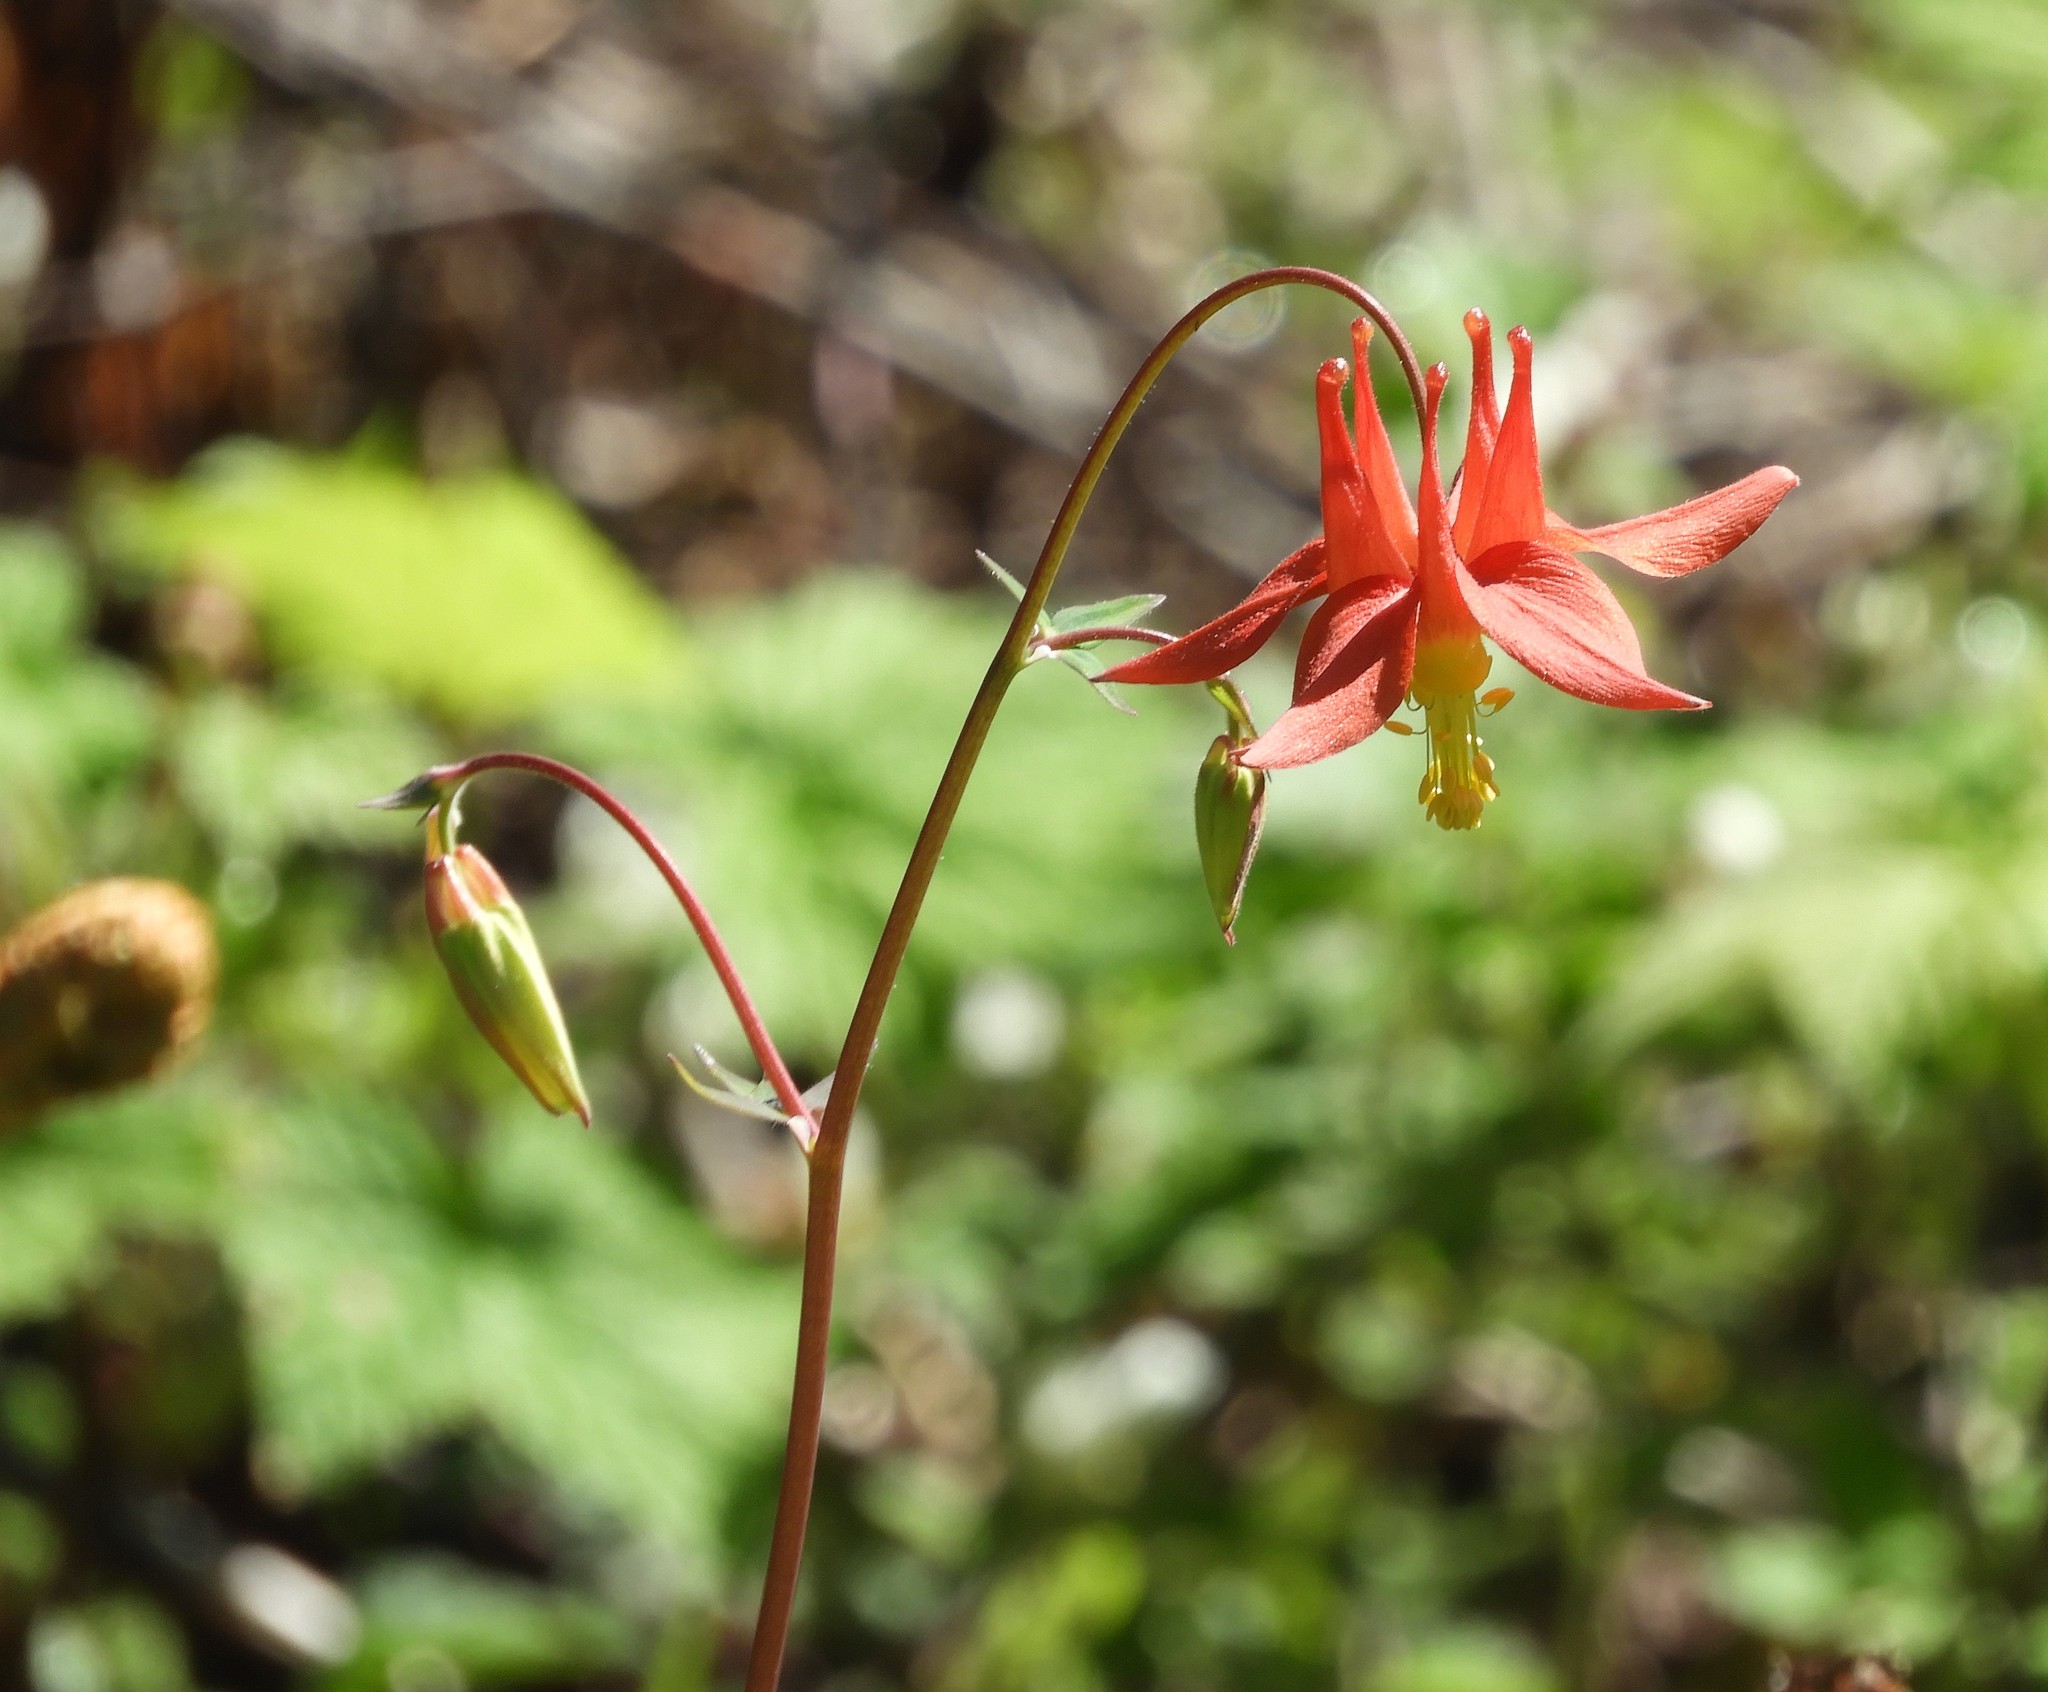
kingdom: Plantae
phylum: Tracheophyta
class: Magnoliopsida
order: Ranunculales
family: Ranunculaceae
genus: Aquilegia
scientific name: Aquilegia formosa
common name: Sitka columbine
